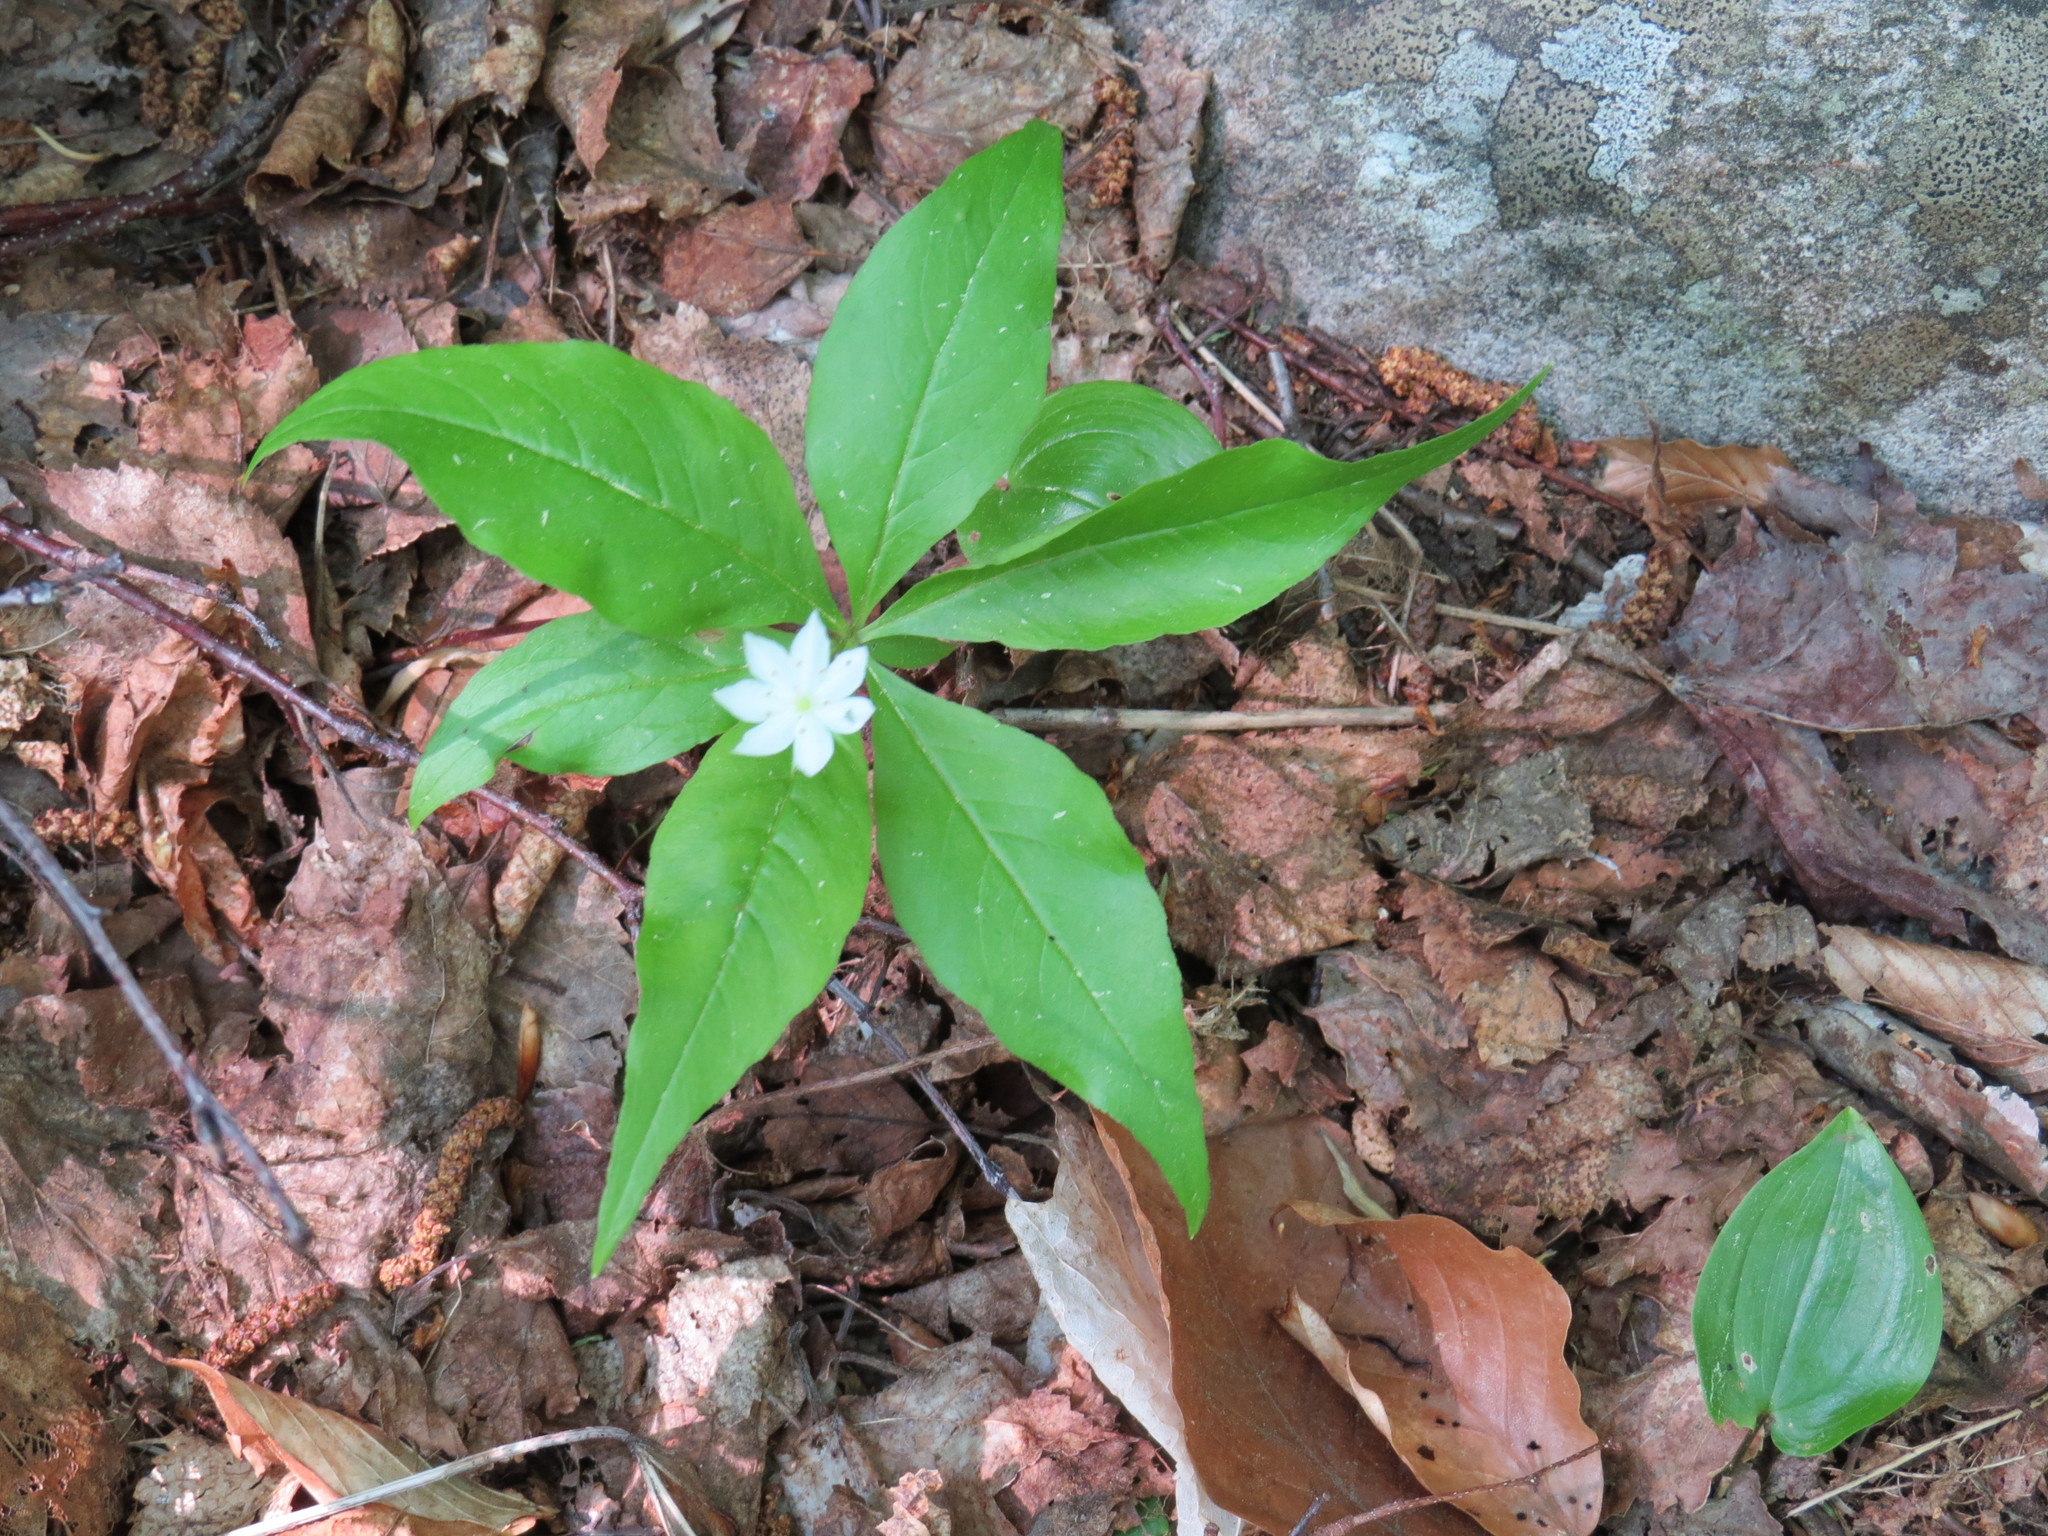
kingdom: Plantae
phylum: Tracheophyta
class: Magnoliopsida
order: Ericales
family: Primulaceae
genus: Lysimachia
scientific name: Lysimachia borealis
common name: American starflower
